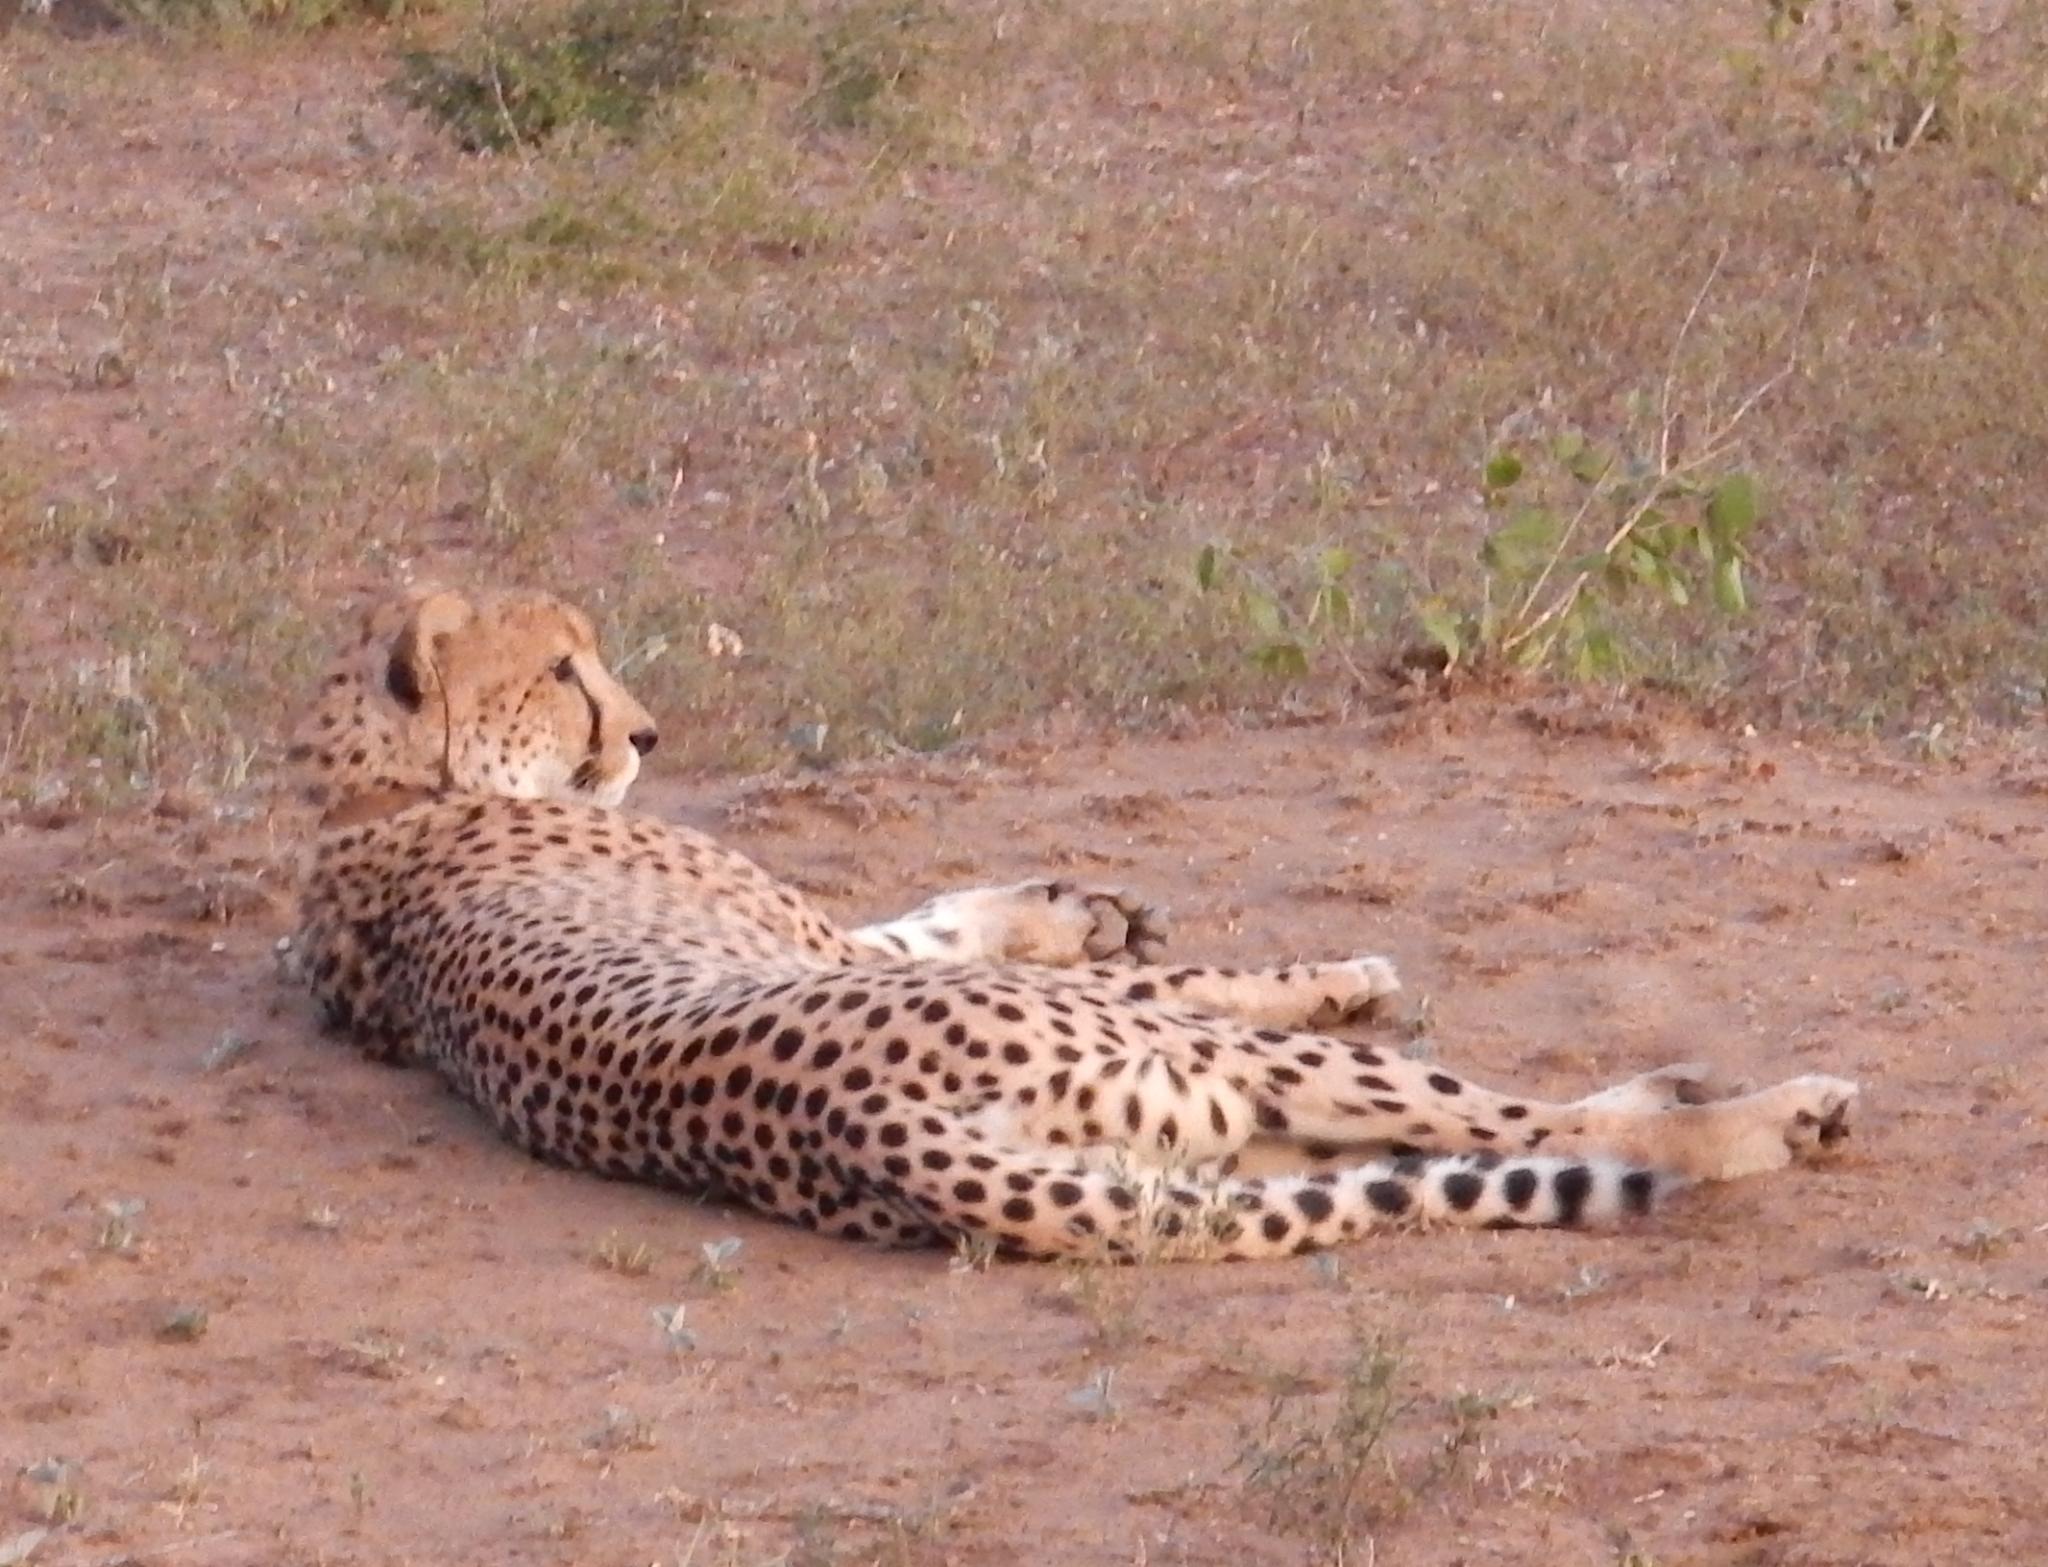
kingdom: Animalia
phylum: Chordata
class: Mammalia
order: Carnivora
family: Felidae
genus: Acinonyx
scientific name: Acinonyx jubatus
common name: Cheetah
